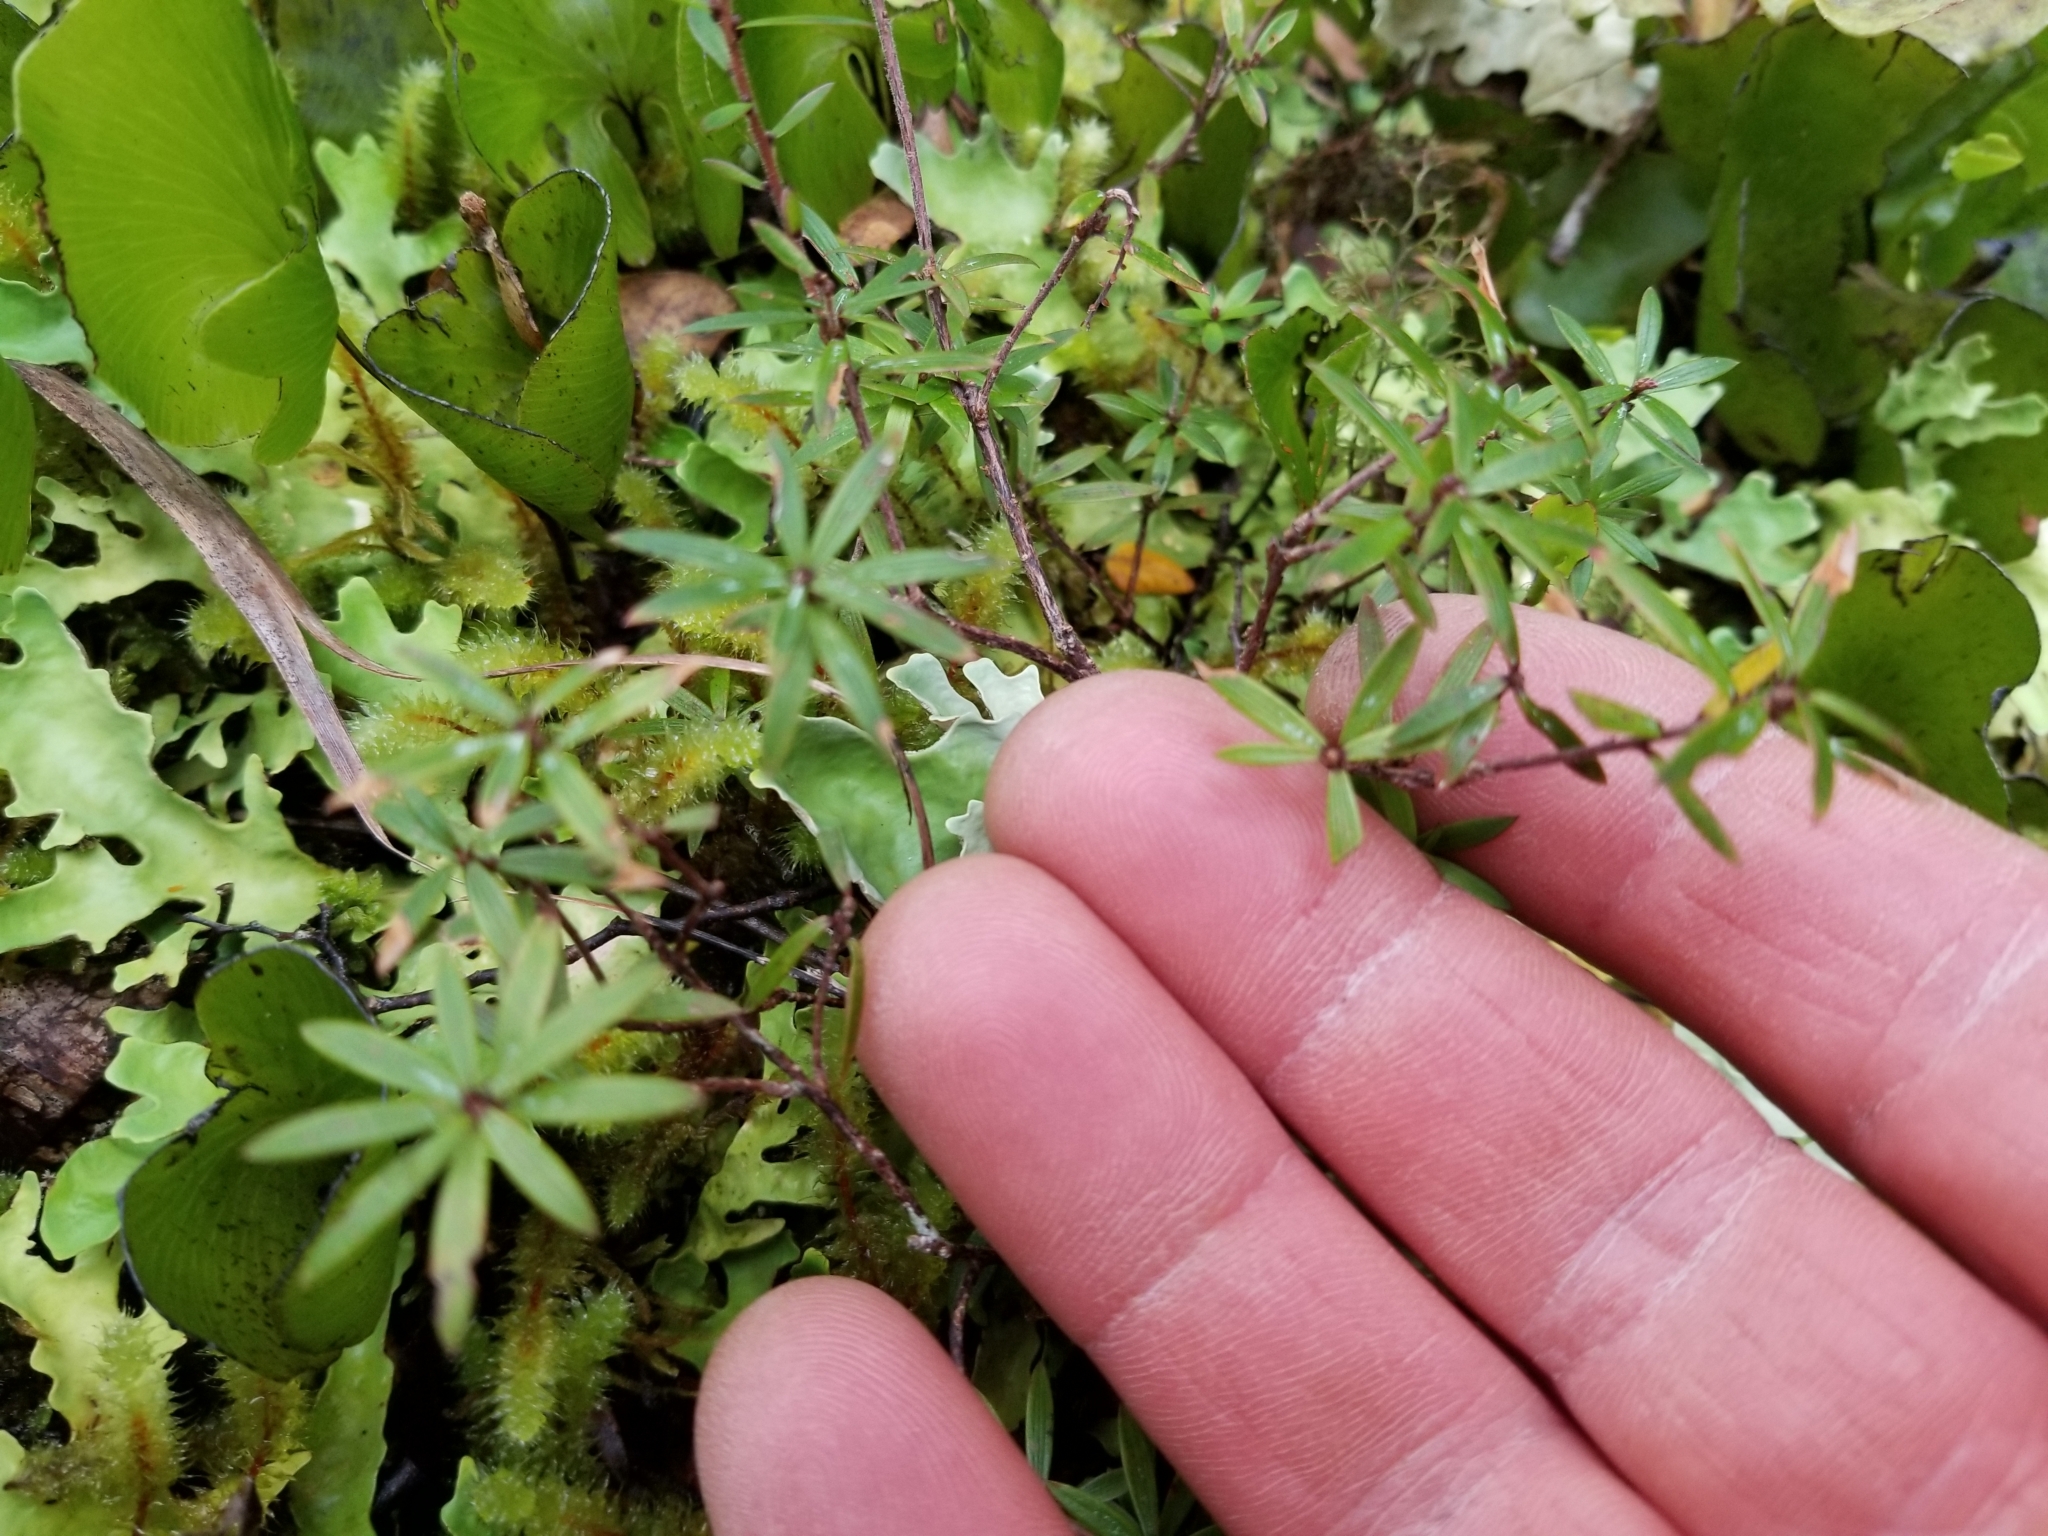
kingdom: Plantae
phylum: Tracheophyta
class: Magnoliopsida
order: Ericales
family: Ericaceae
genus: Leucopogon
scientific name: Leucopogon fasciculatus
